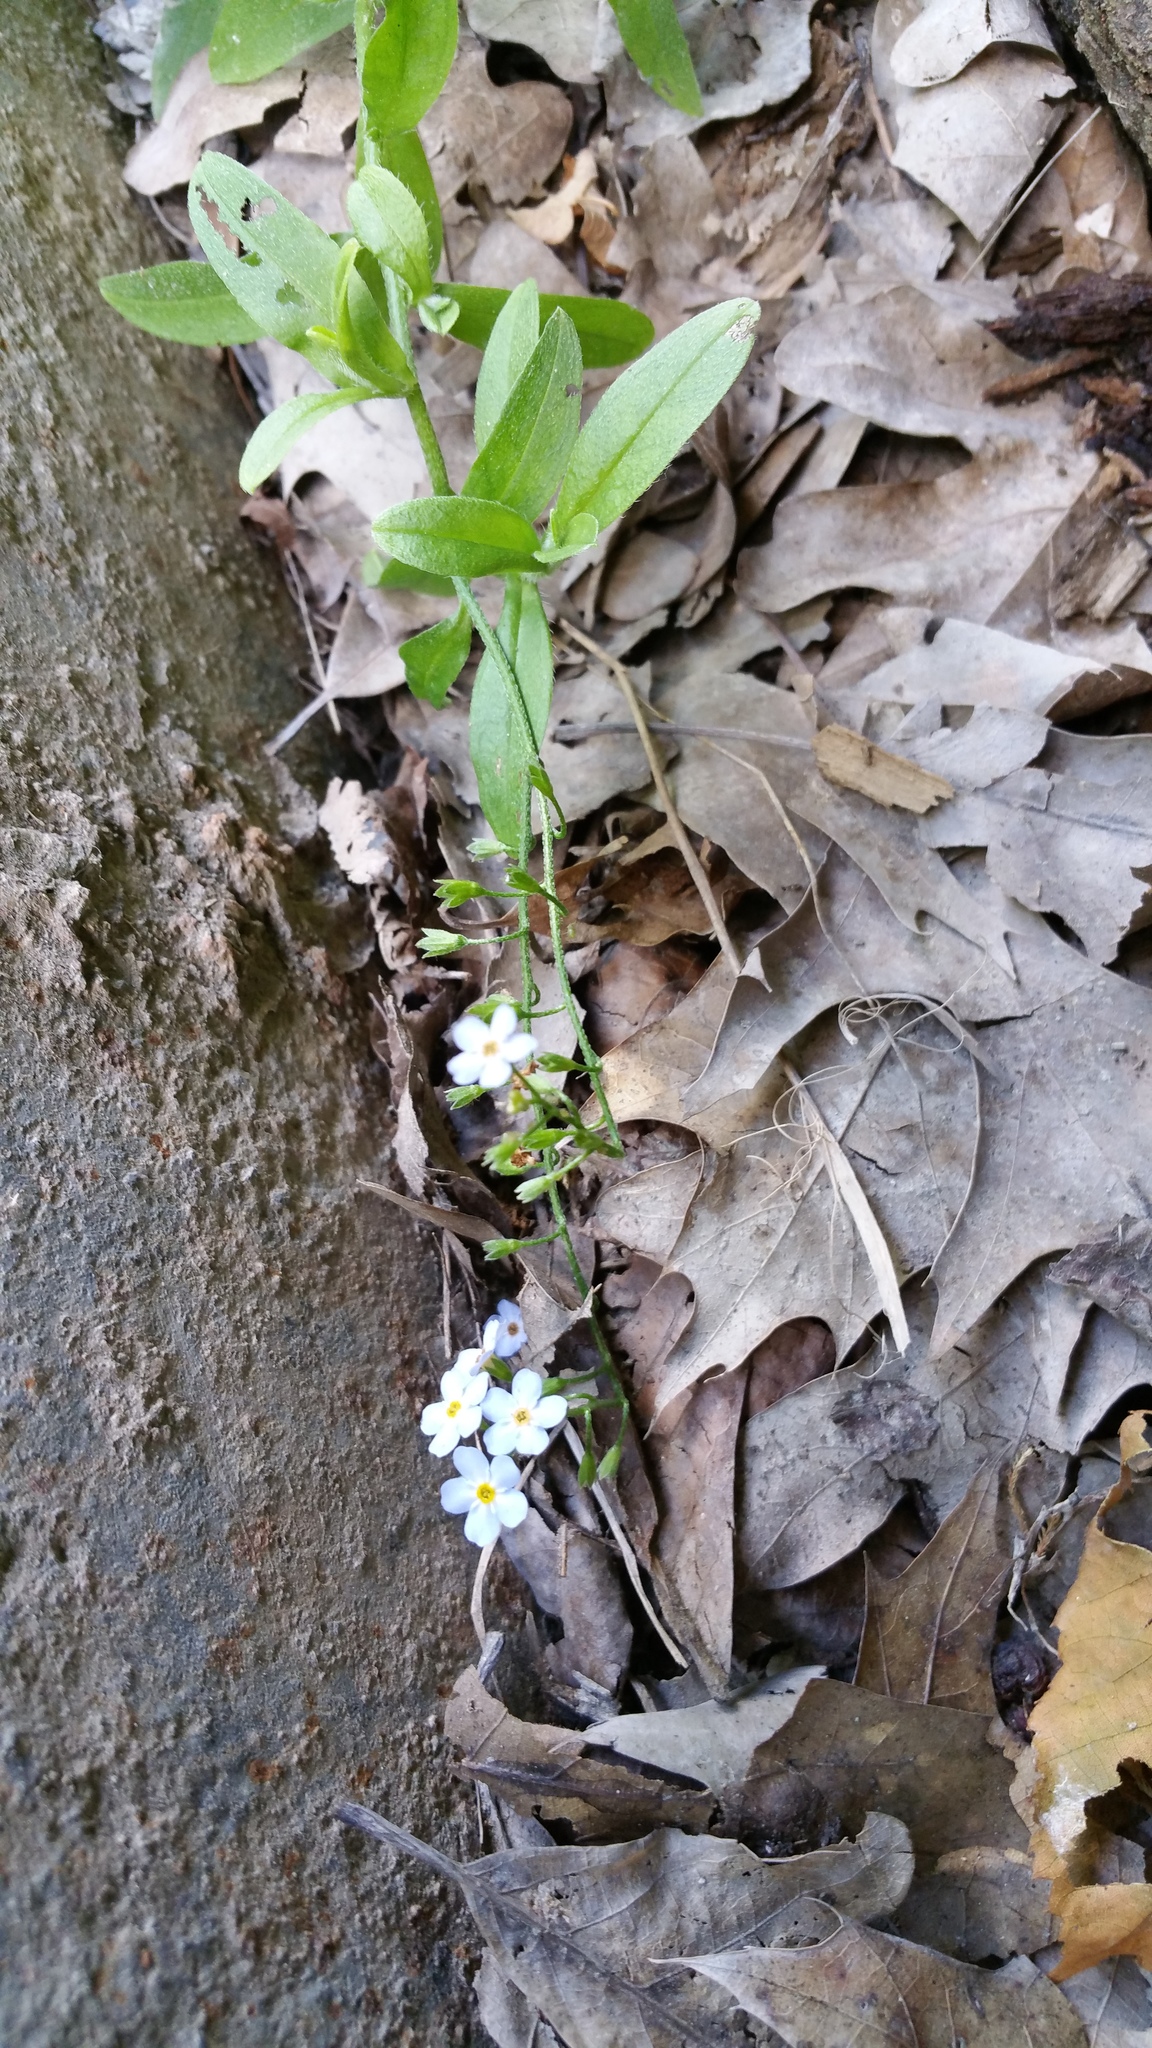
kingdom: Plantae
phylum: Tracheophyta
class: Magnoliopsida
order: Boraginales
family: Boraginaceae
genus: Myosotis
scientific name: Myosotis scorpioides
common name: Water forget-me-not
